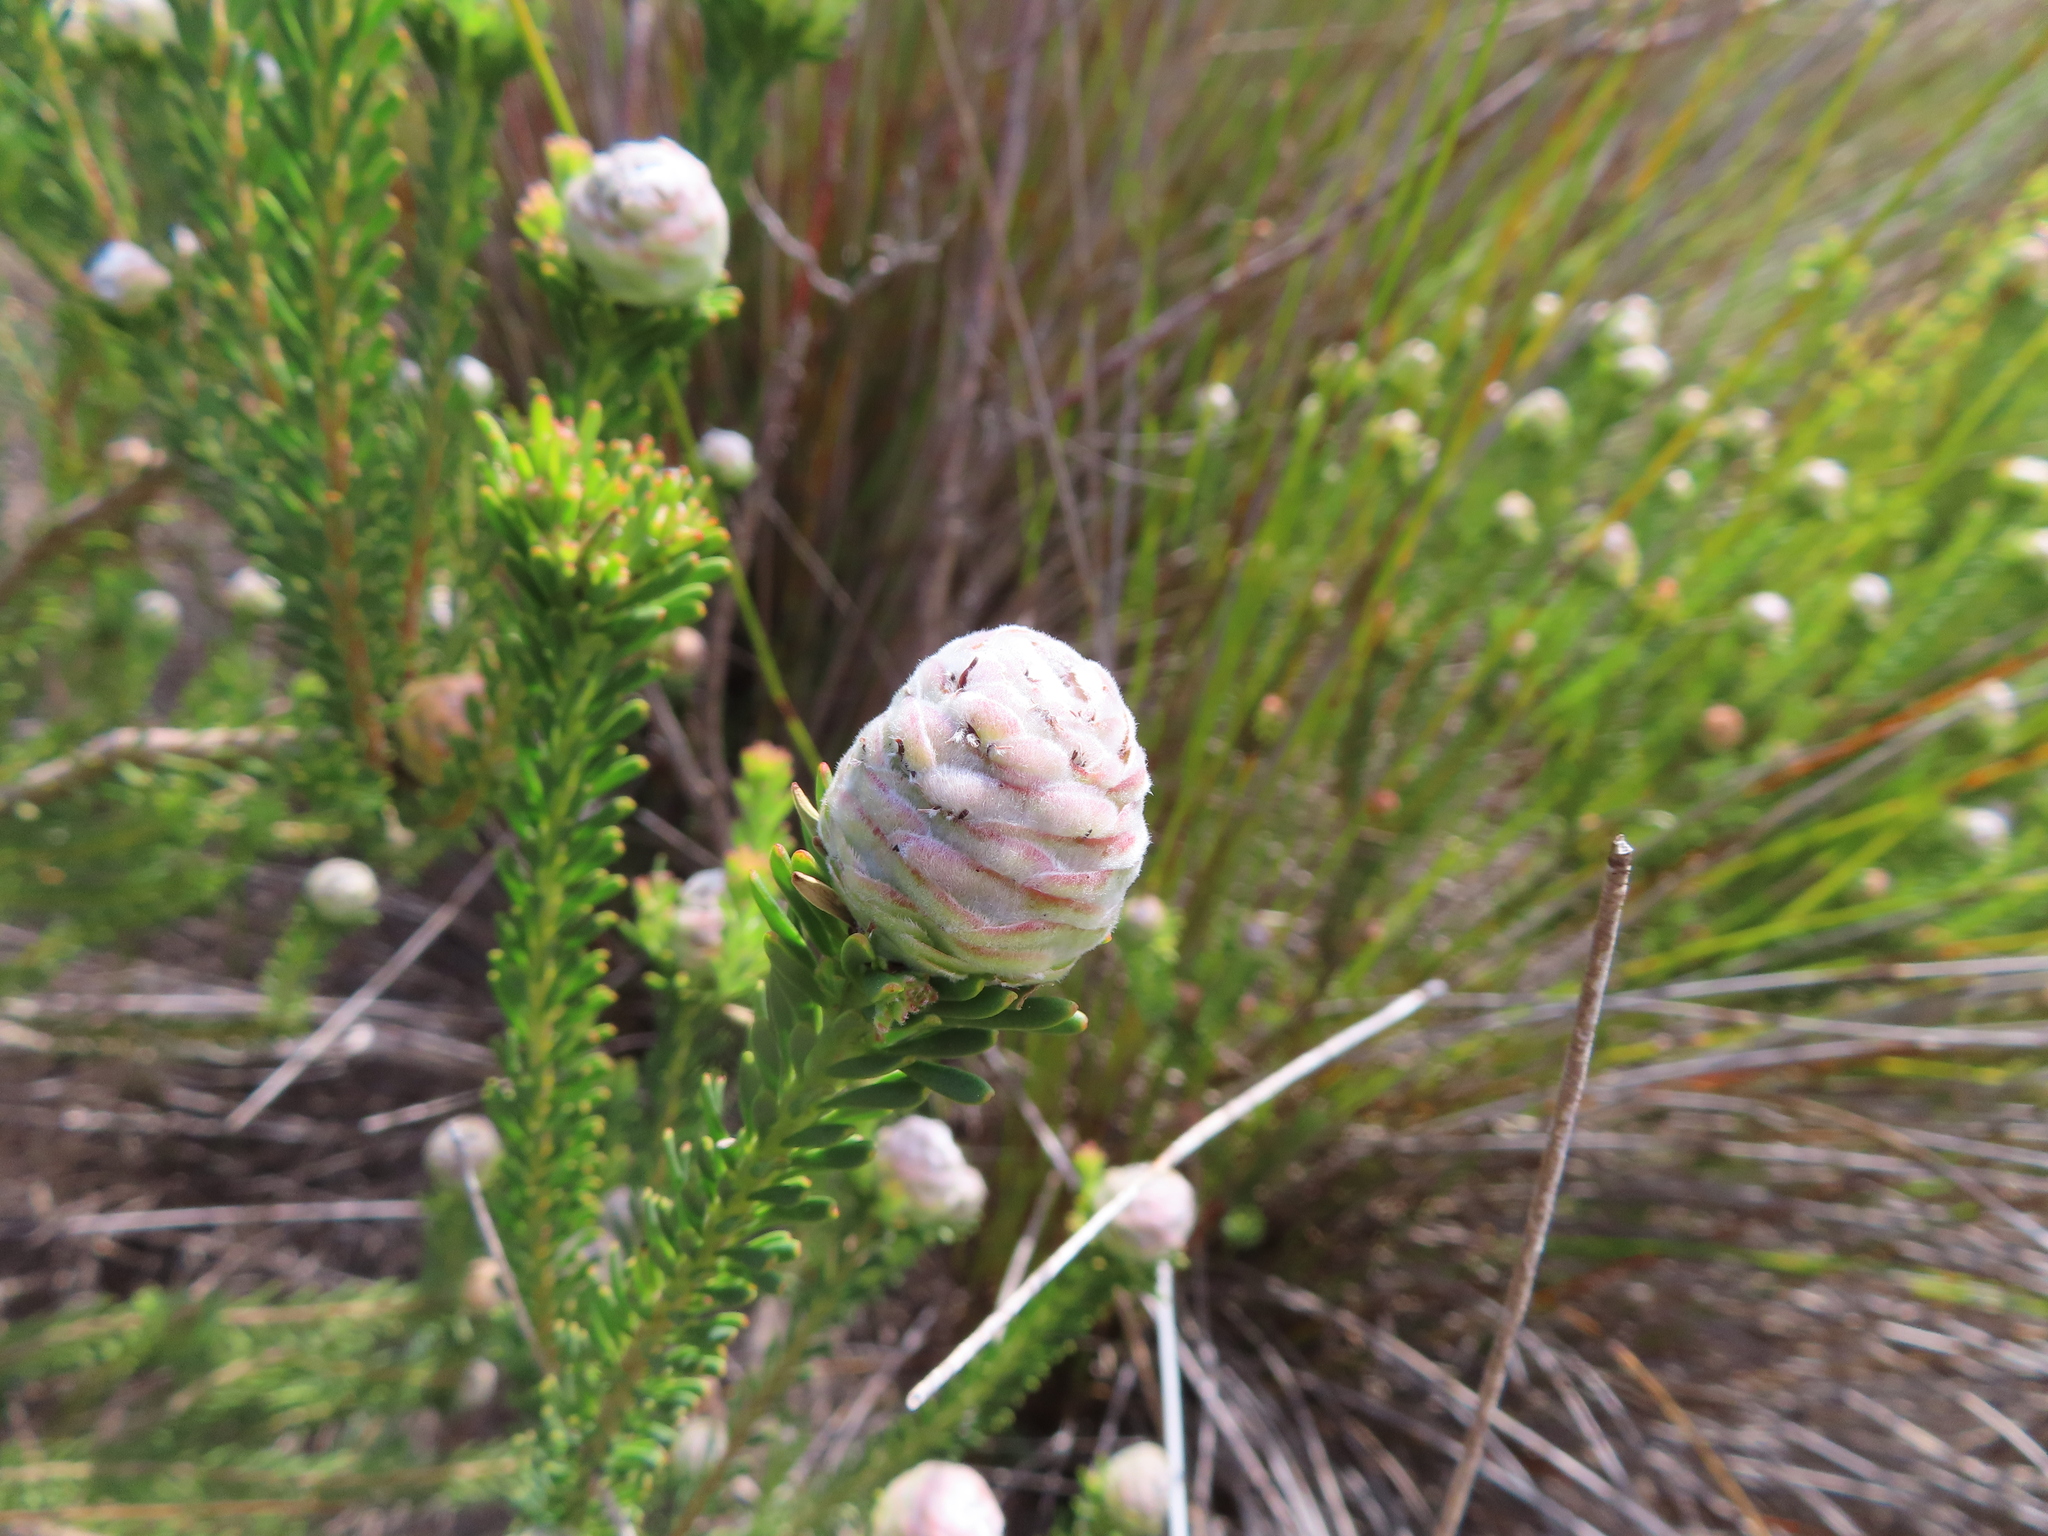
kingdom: Plantae
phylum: Tracheophyta
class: Magnoliopsida
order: Proteales
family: Proteaceae
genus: Leucadendron
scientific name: Leucadendron linifolium
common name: Line-leaf conebush
